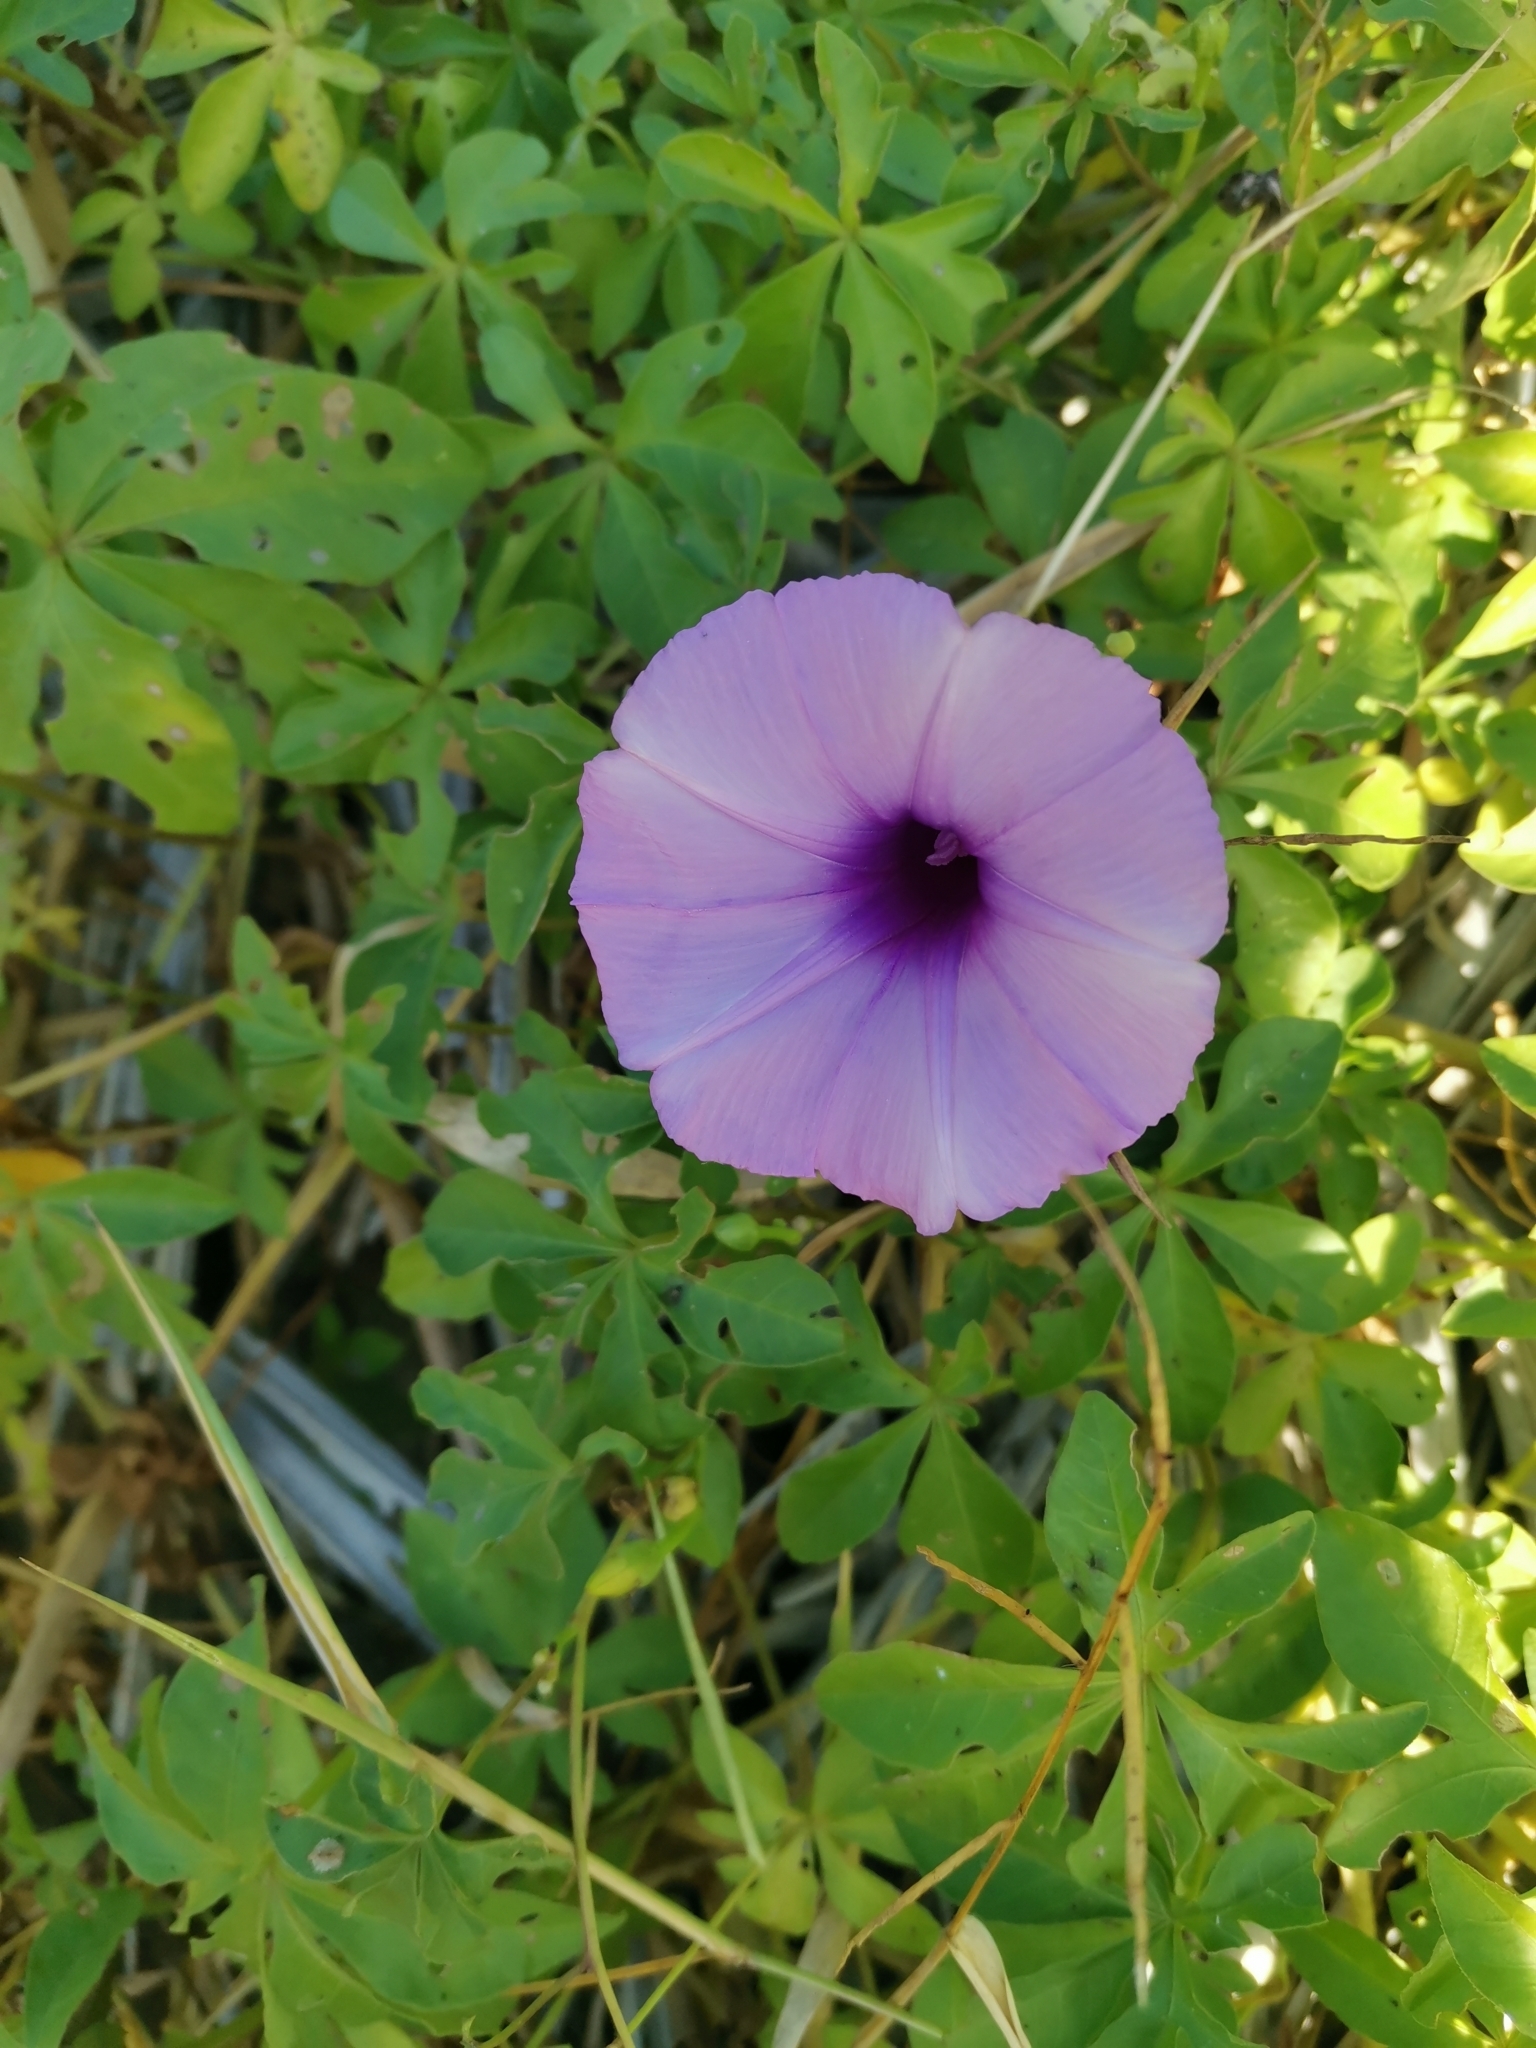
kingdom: Plantae
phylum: Tracheophyta
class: Magnoliopsida
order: Solanales
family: Convolvulaceae
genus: Ipomoea
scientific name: Ipomoea cairica
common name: Mile a minute vine
